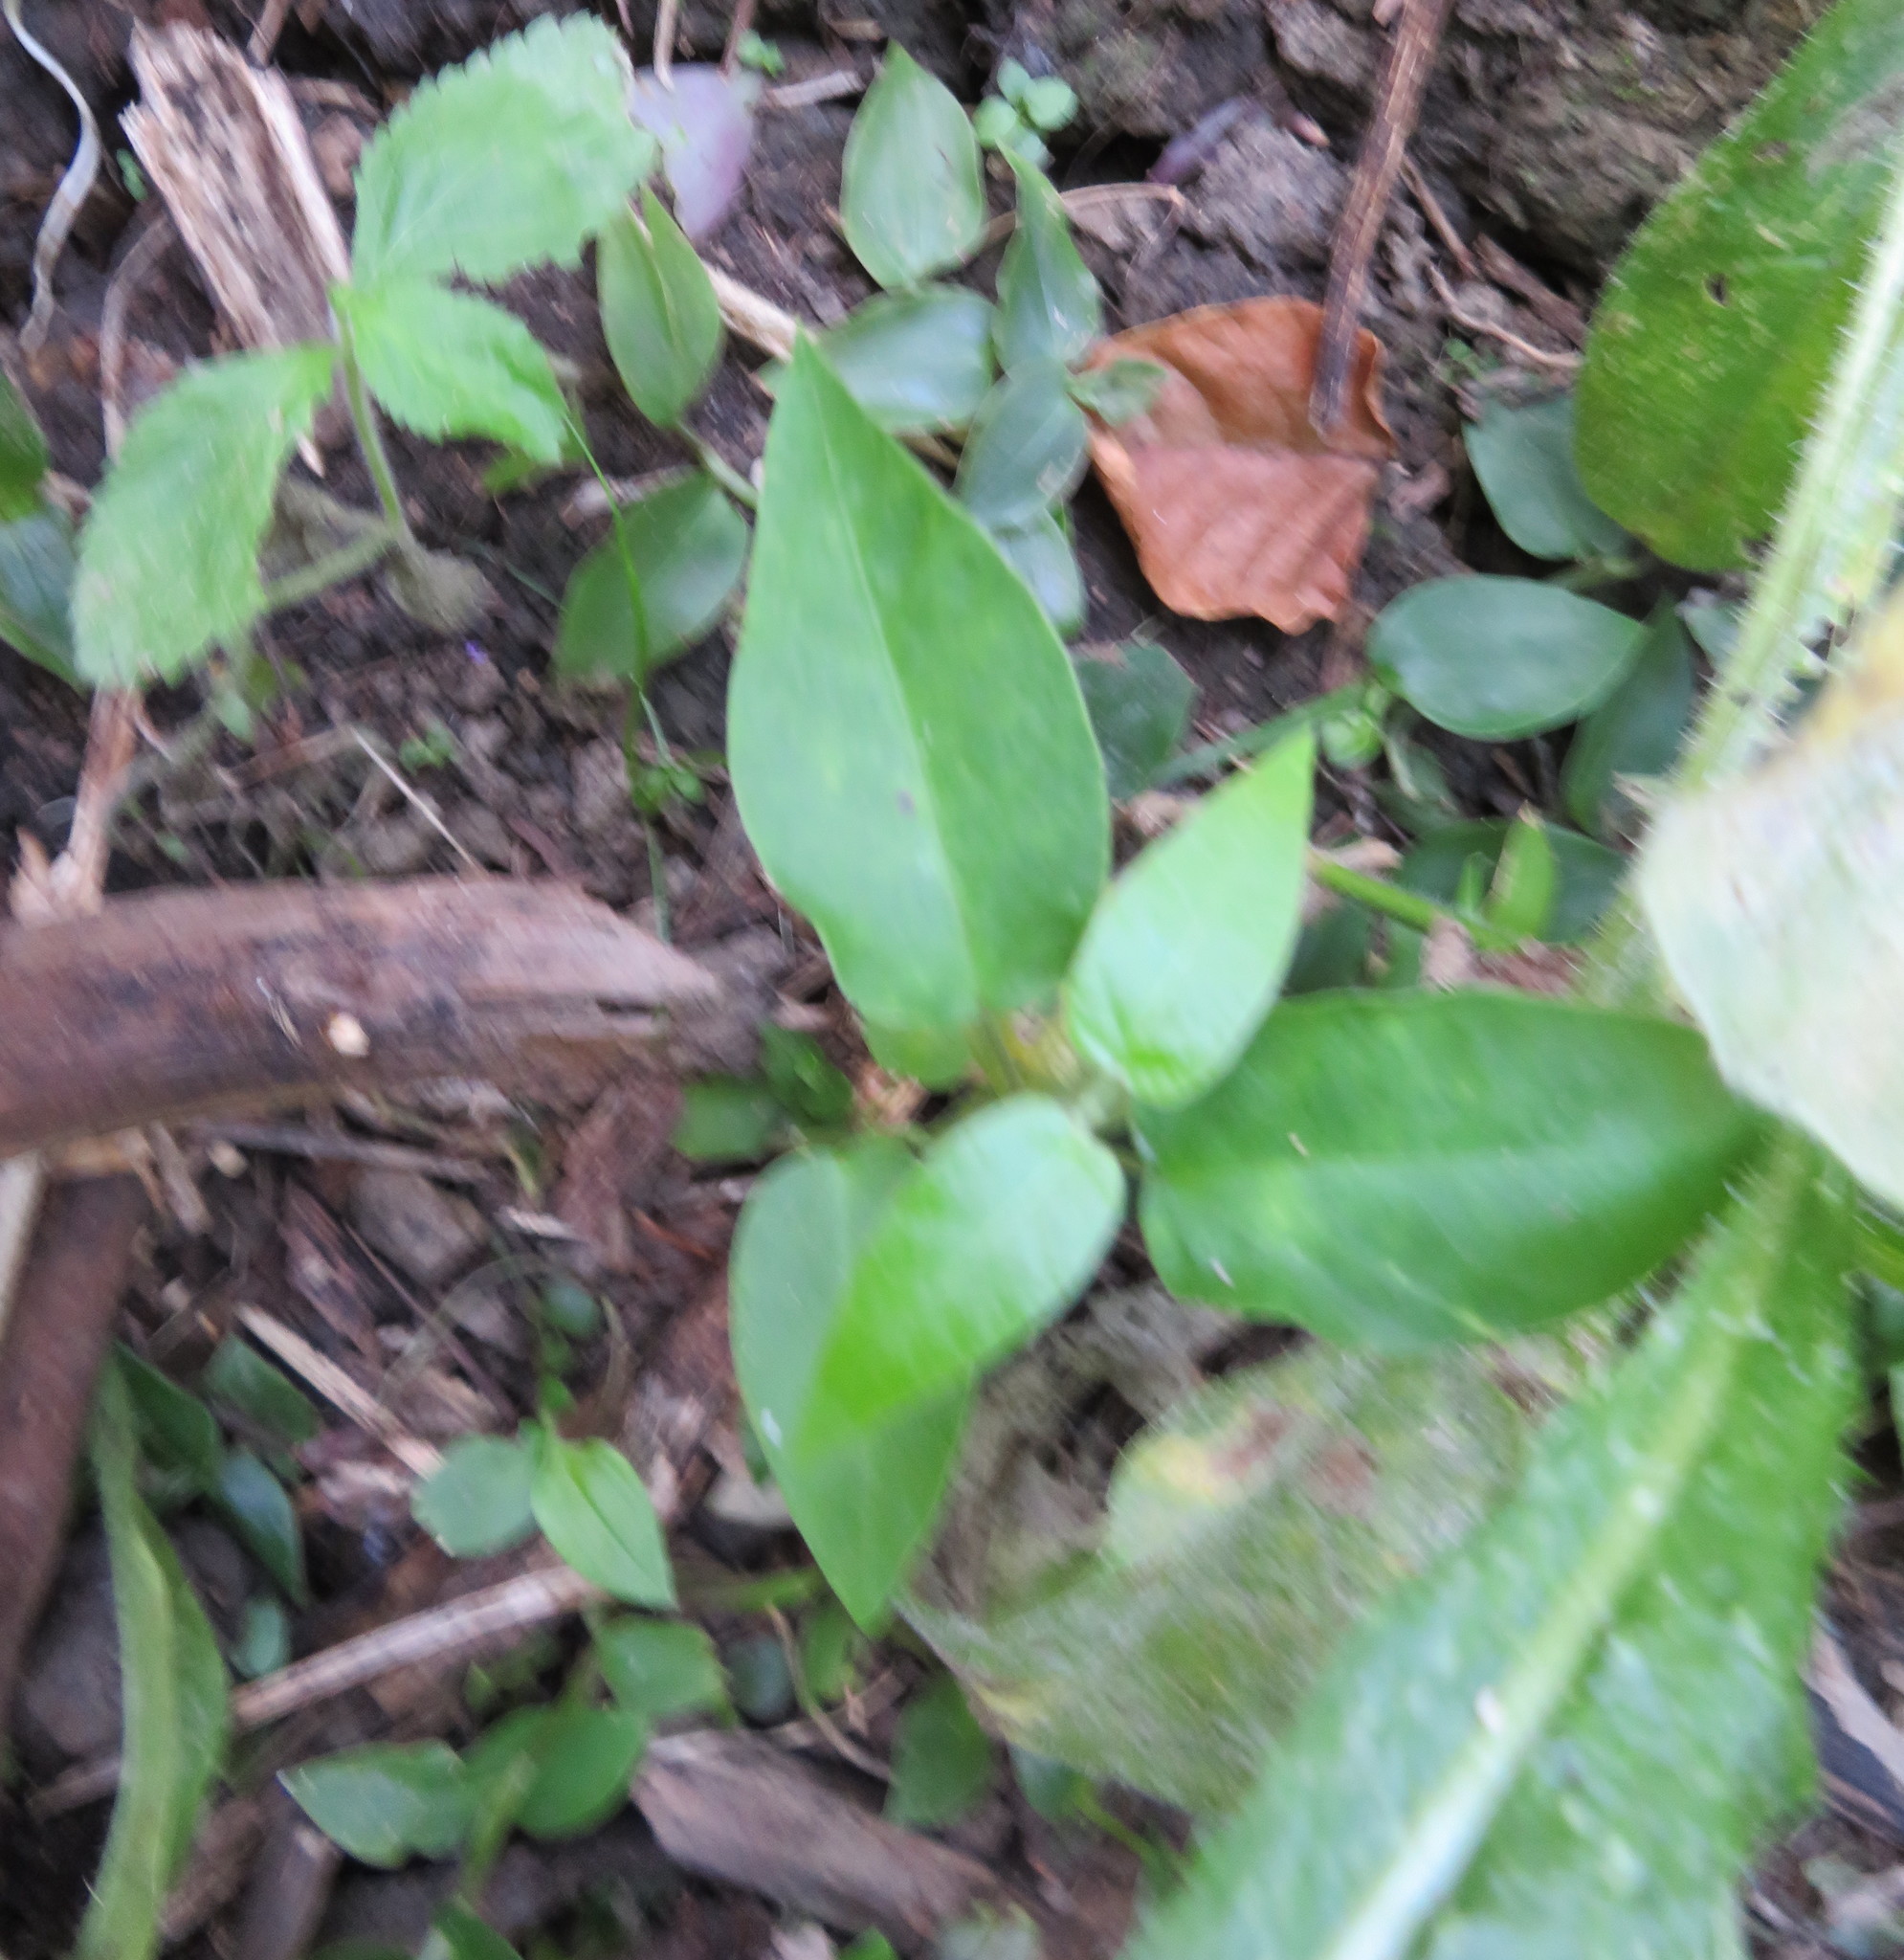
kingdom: Plantae
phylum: Tracheophyta
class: Magnoliopsida
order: Gentianales
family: Apocynaceae
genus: Araujia
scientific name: Araujia sericifera
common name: White bladderflower
